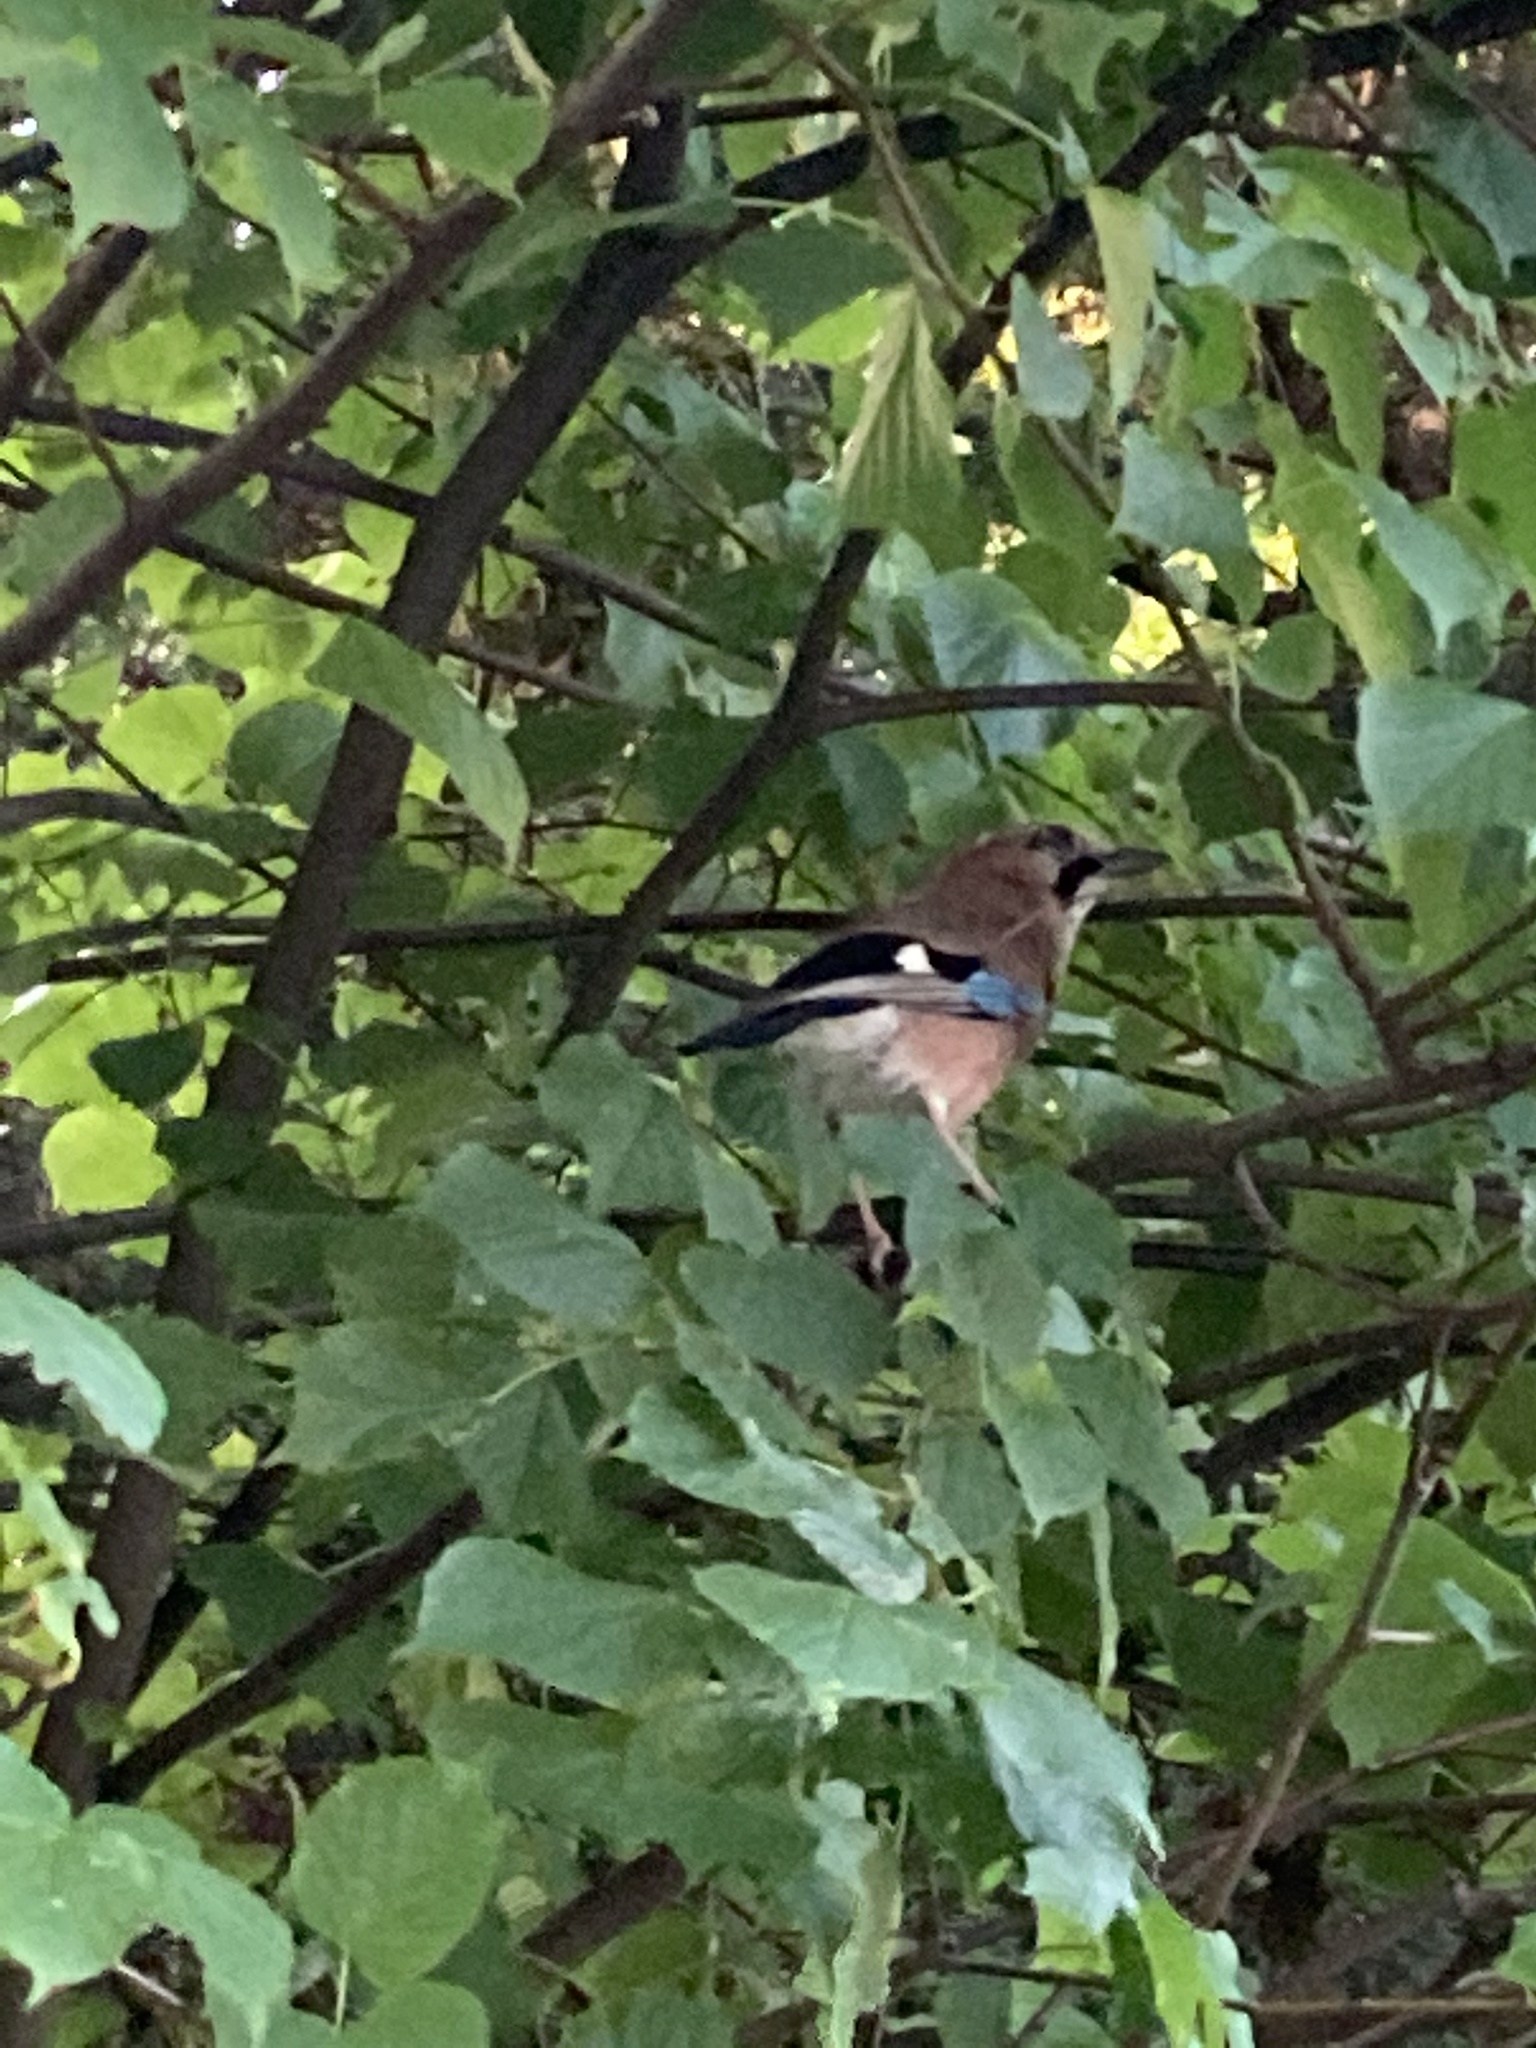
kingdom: Animalia
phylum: Chordata
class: Aves
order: Passeriformes
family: Corvidae
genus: Garrulus
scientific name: Garrulus glandarius
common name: Eurasian jay
